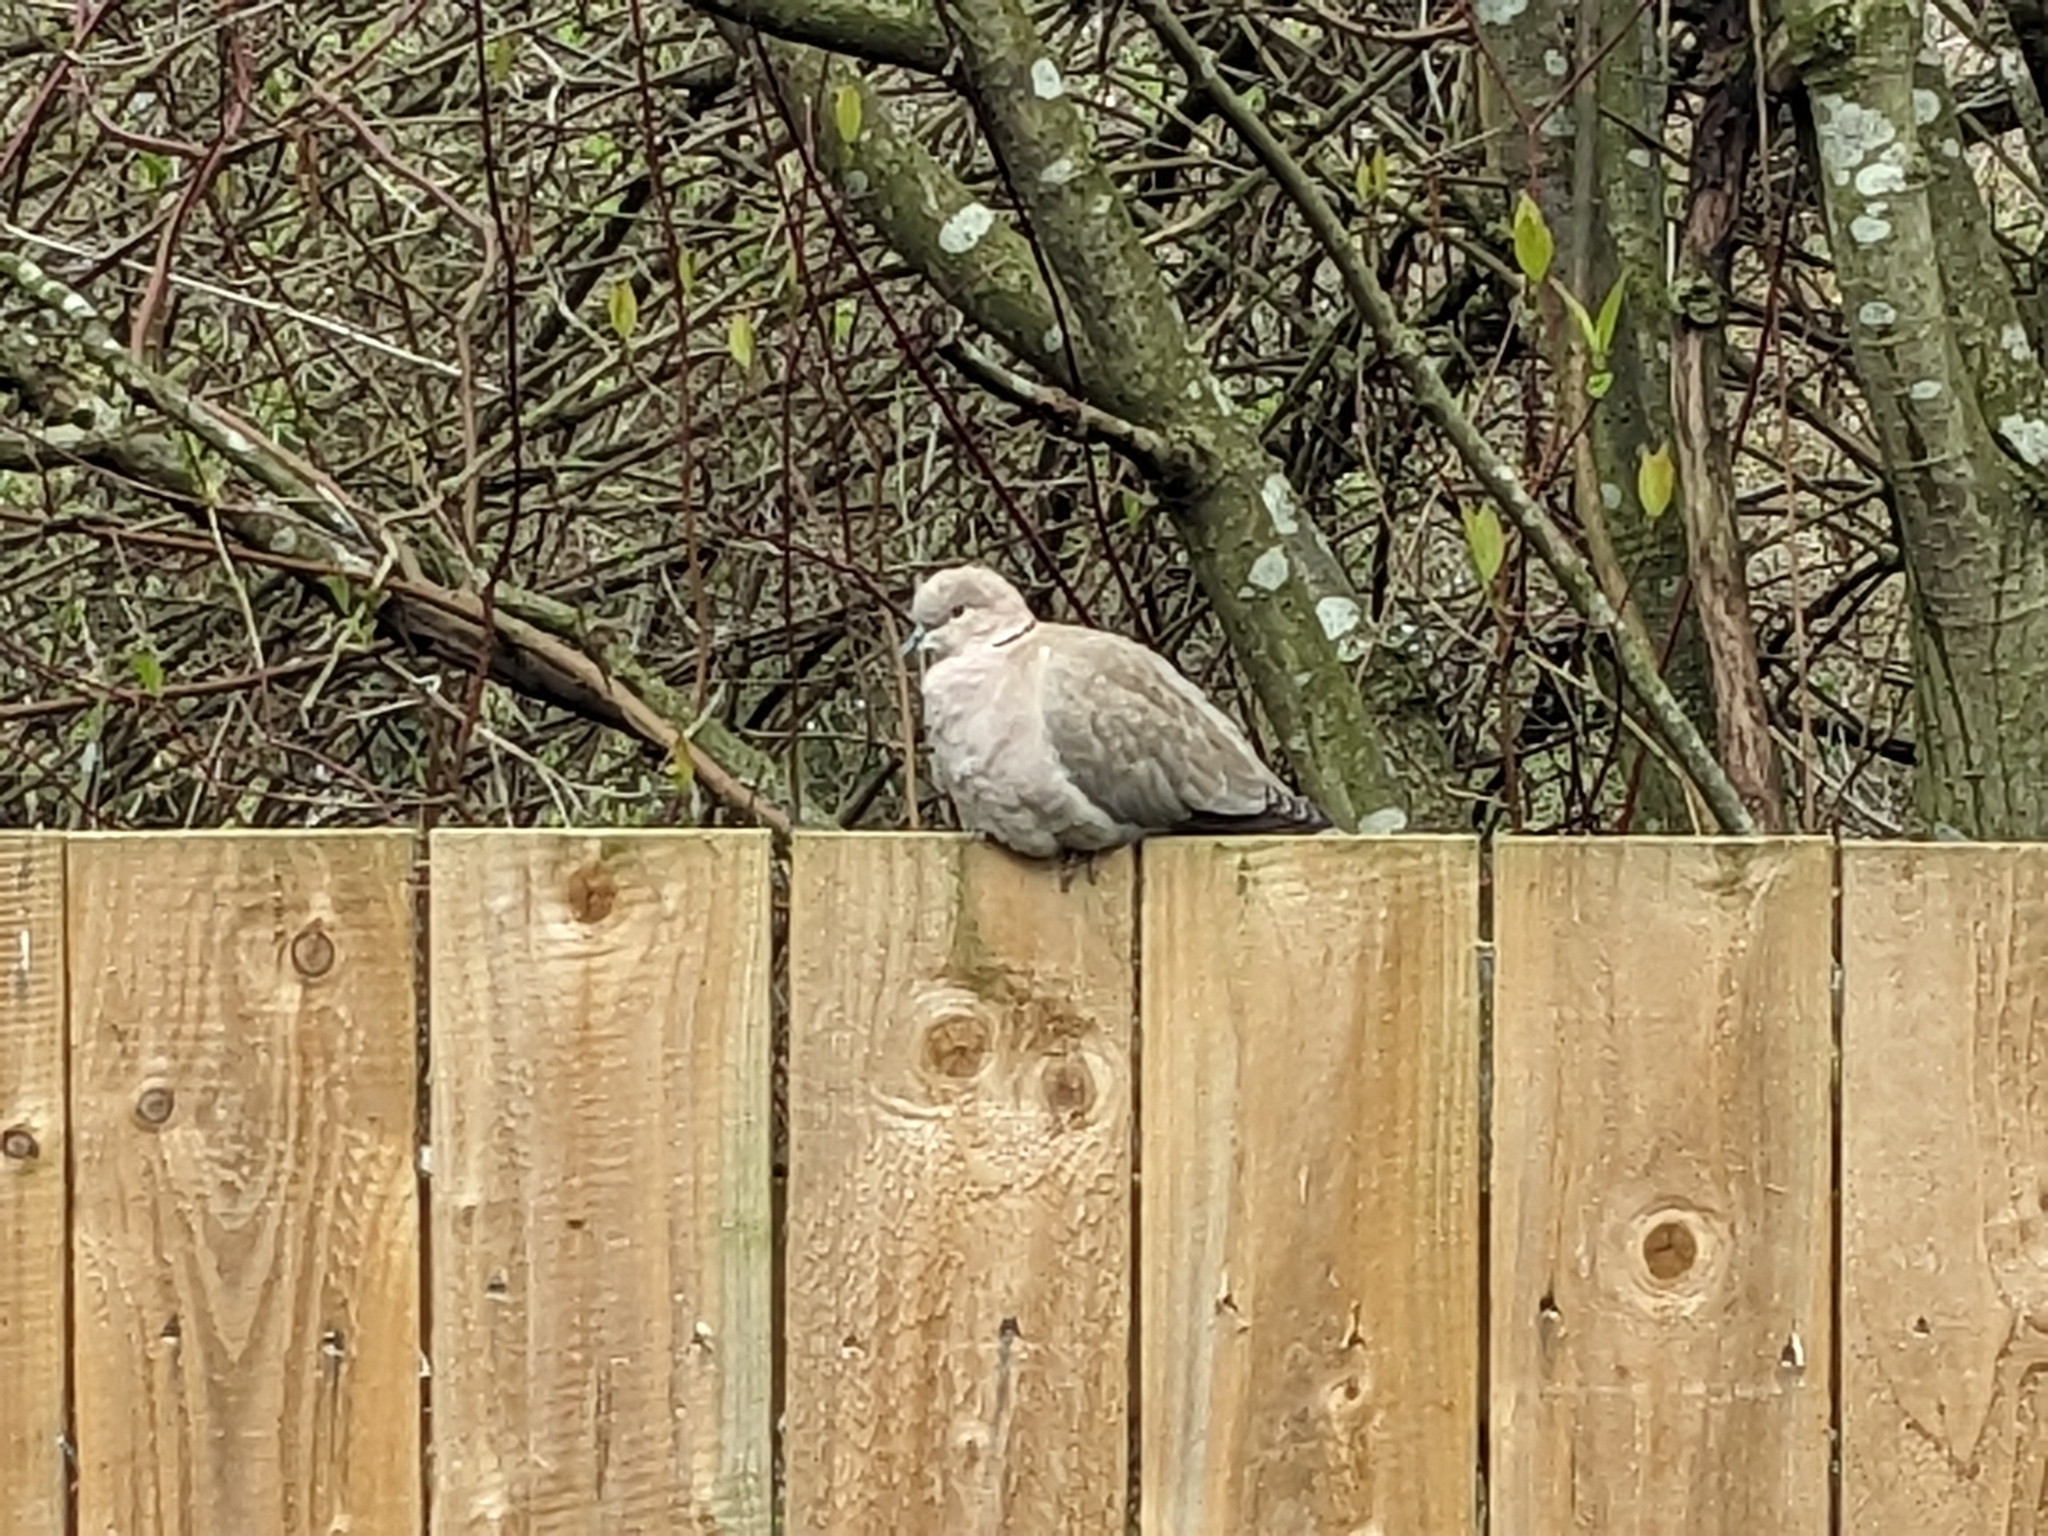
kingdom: Animalia
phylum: Chordata
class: Aves
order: Columbiformes
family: Columbidae
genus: Streptopelia
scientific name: Streptopelia decaocto
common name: Eurasian collared dove
